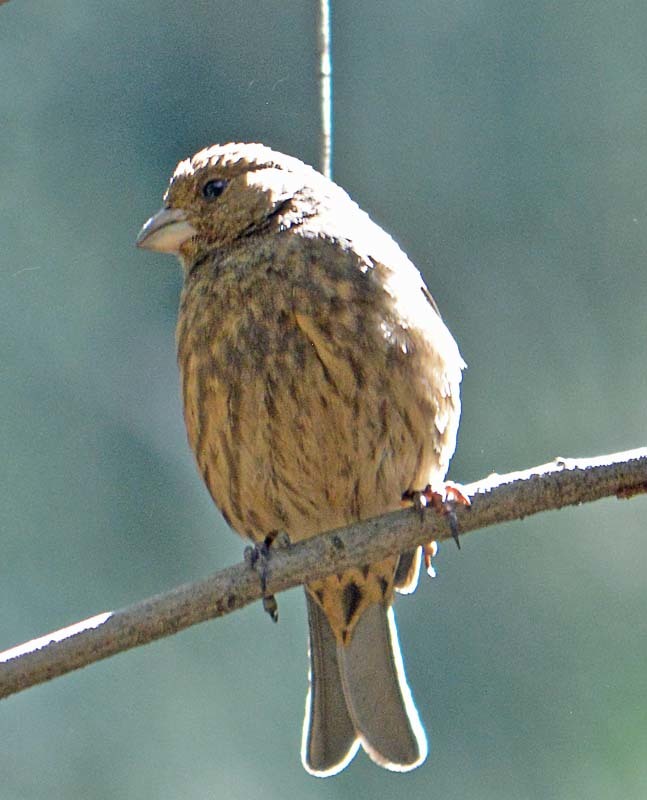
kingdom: Animalia
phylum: Chordata
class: Aves
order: Passeriformes
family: Fringillidae
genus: Haemorhous
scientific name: Haemorhous mexicanus
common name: House finch
